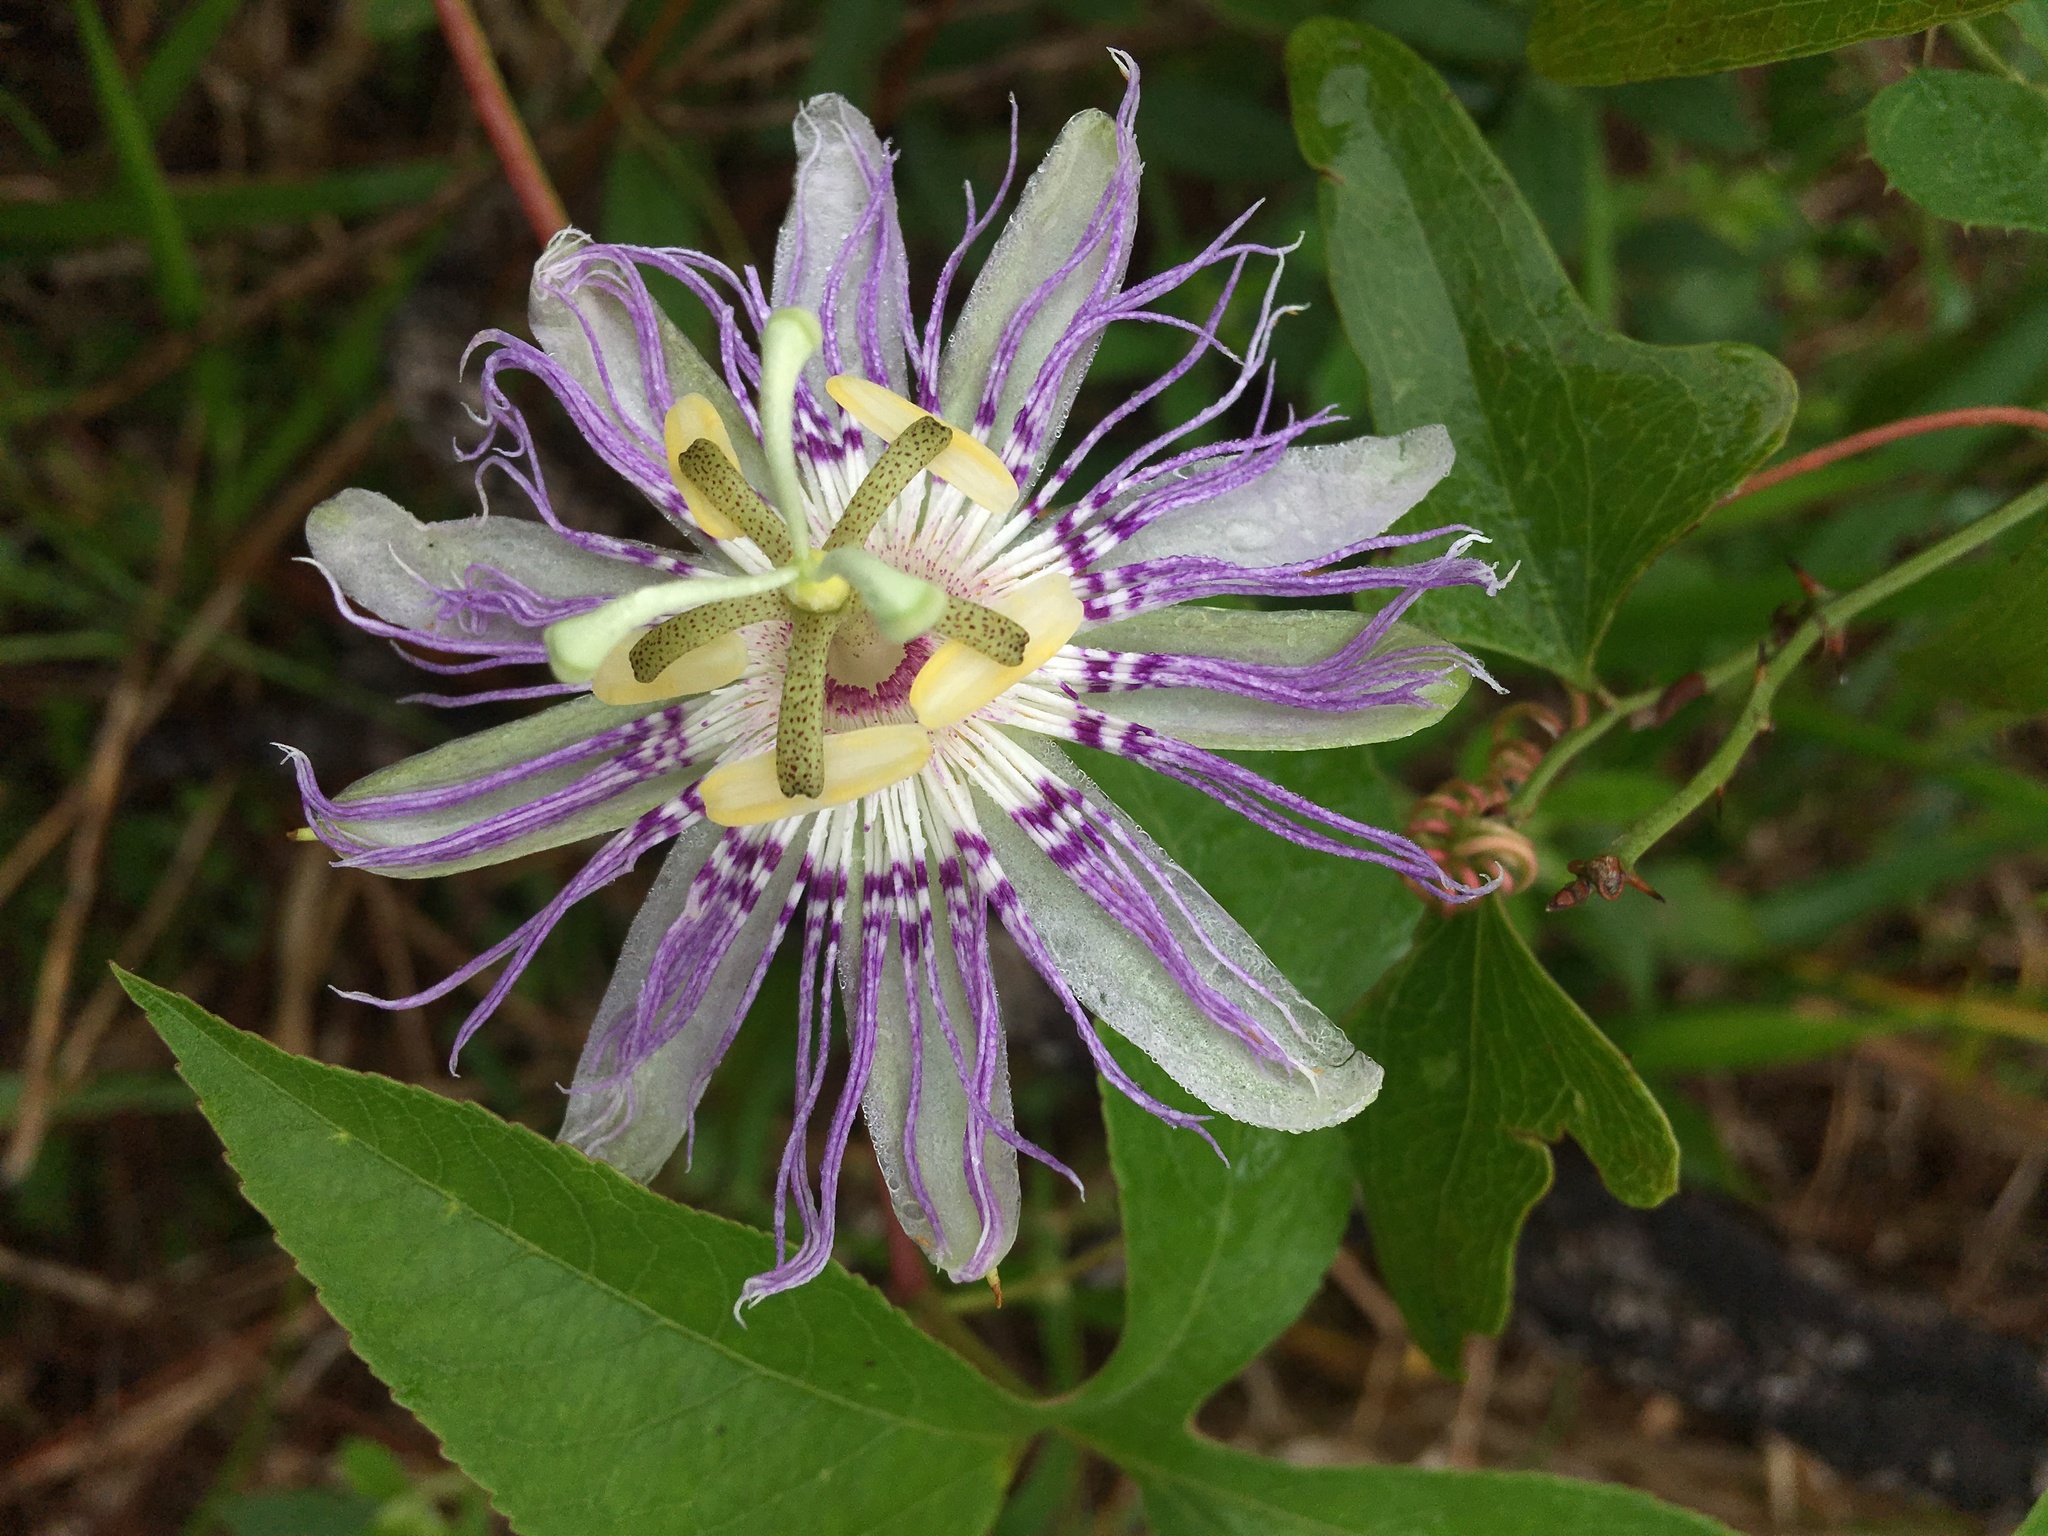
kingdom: Plantae
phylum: Tracheophyta
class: Magnoliopsida
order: Malpighiales
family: Passifloraceae
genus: Passiflora
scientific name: Passiflora incarnata
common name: Apricot-vine
